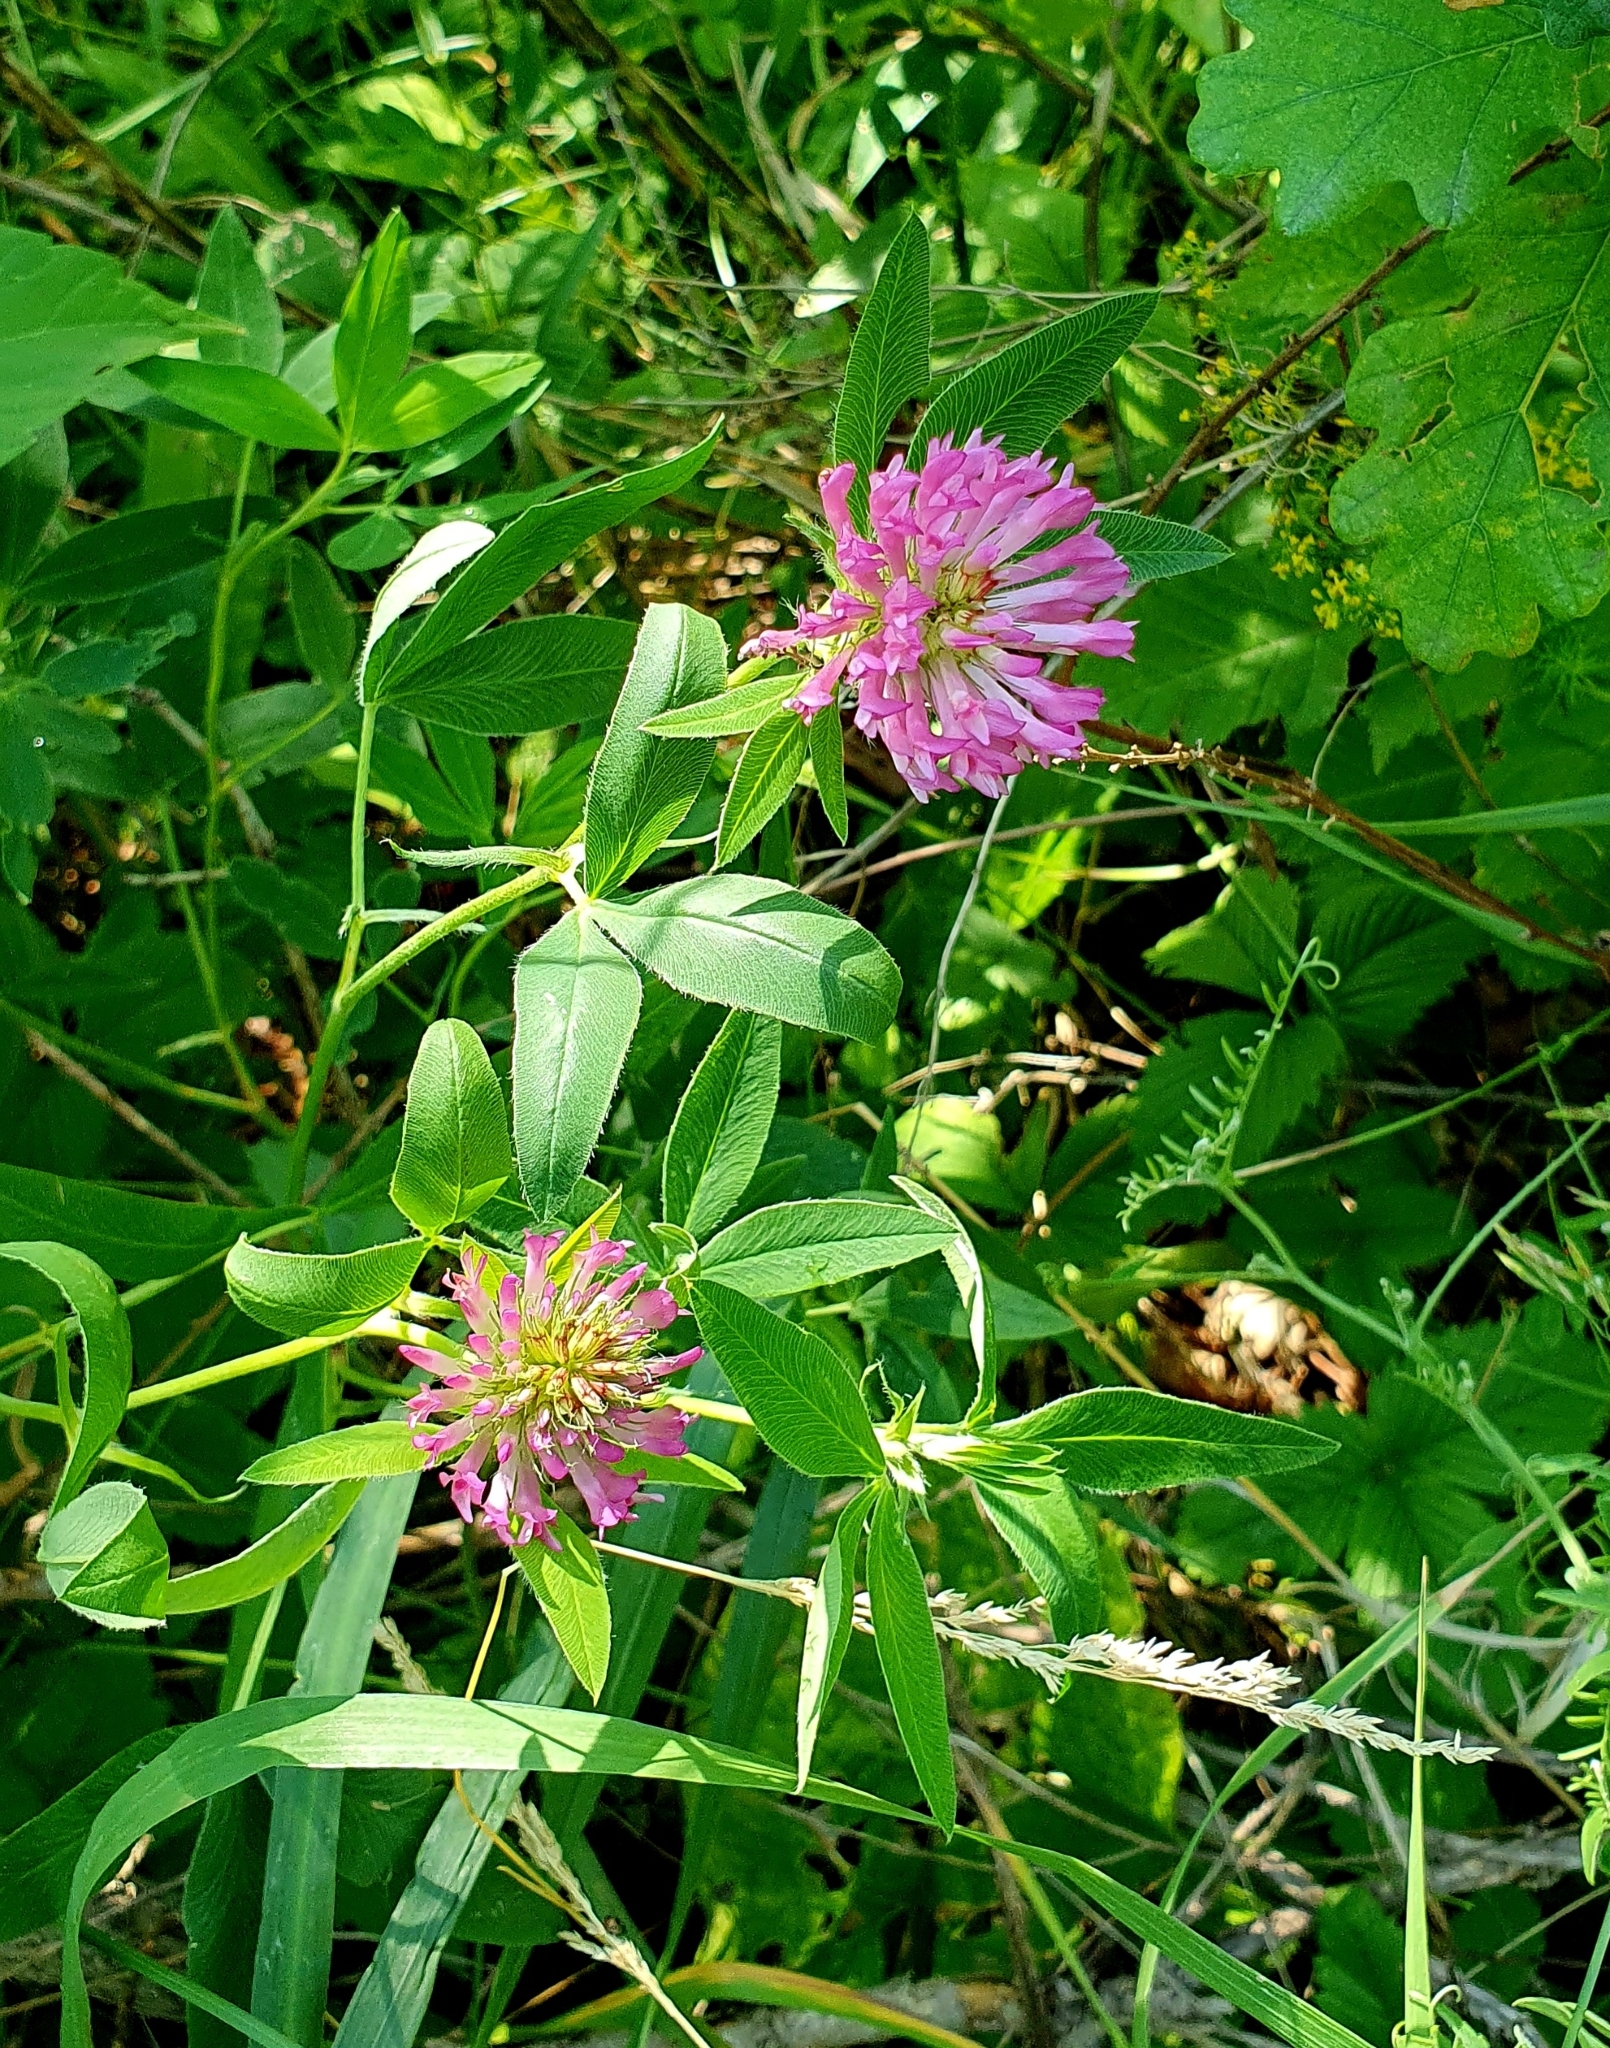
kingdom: Plantae
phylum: Tracheophyta
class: Magnoliopsida
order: Fabales
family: Fabaceae
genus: Trifolium
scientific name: Trifolium medium
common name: Zigzag clover
